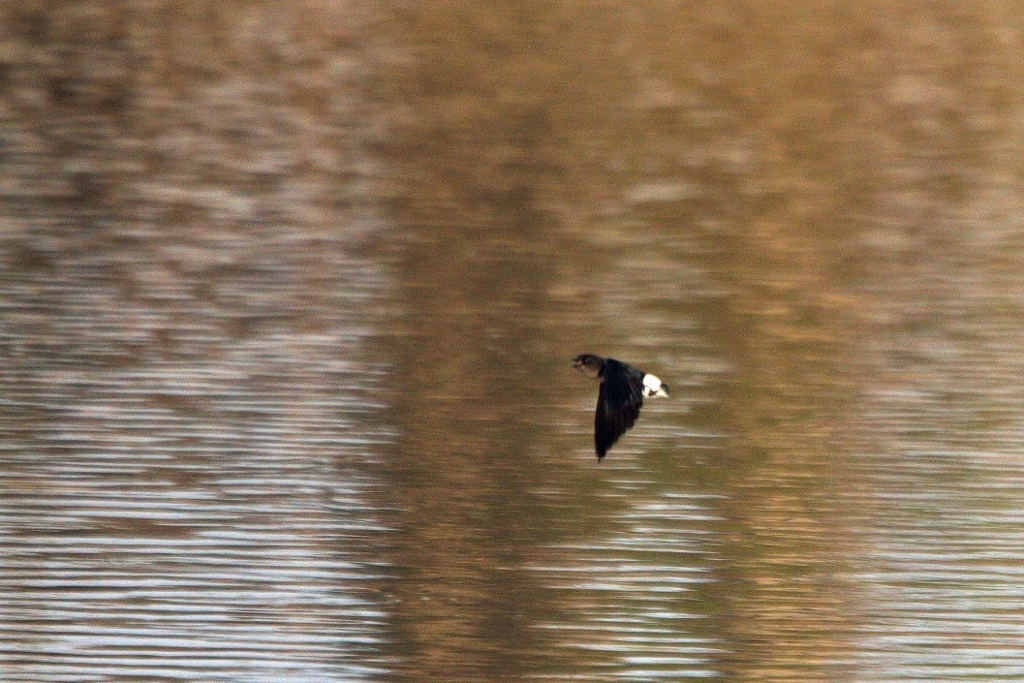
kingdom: Animalia
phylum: Chordata
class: Aves
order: Apodiformes
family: Apodidae
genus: Neafrapus
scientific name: Neafrapus boehmi
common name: Böhm's spinetail
